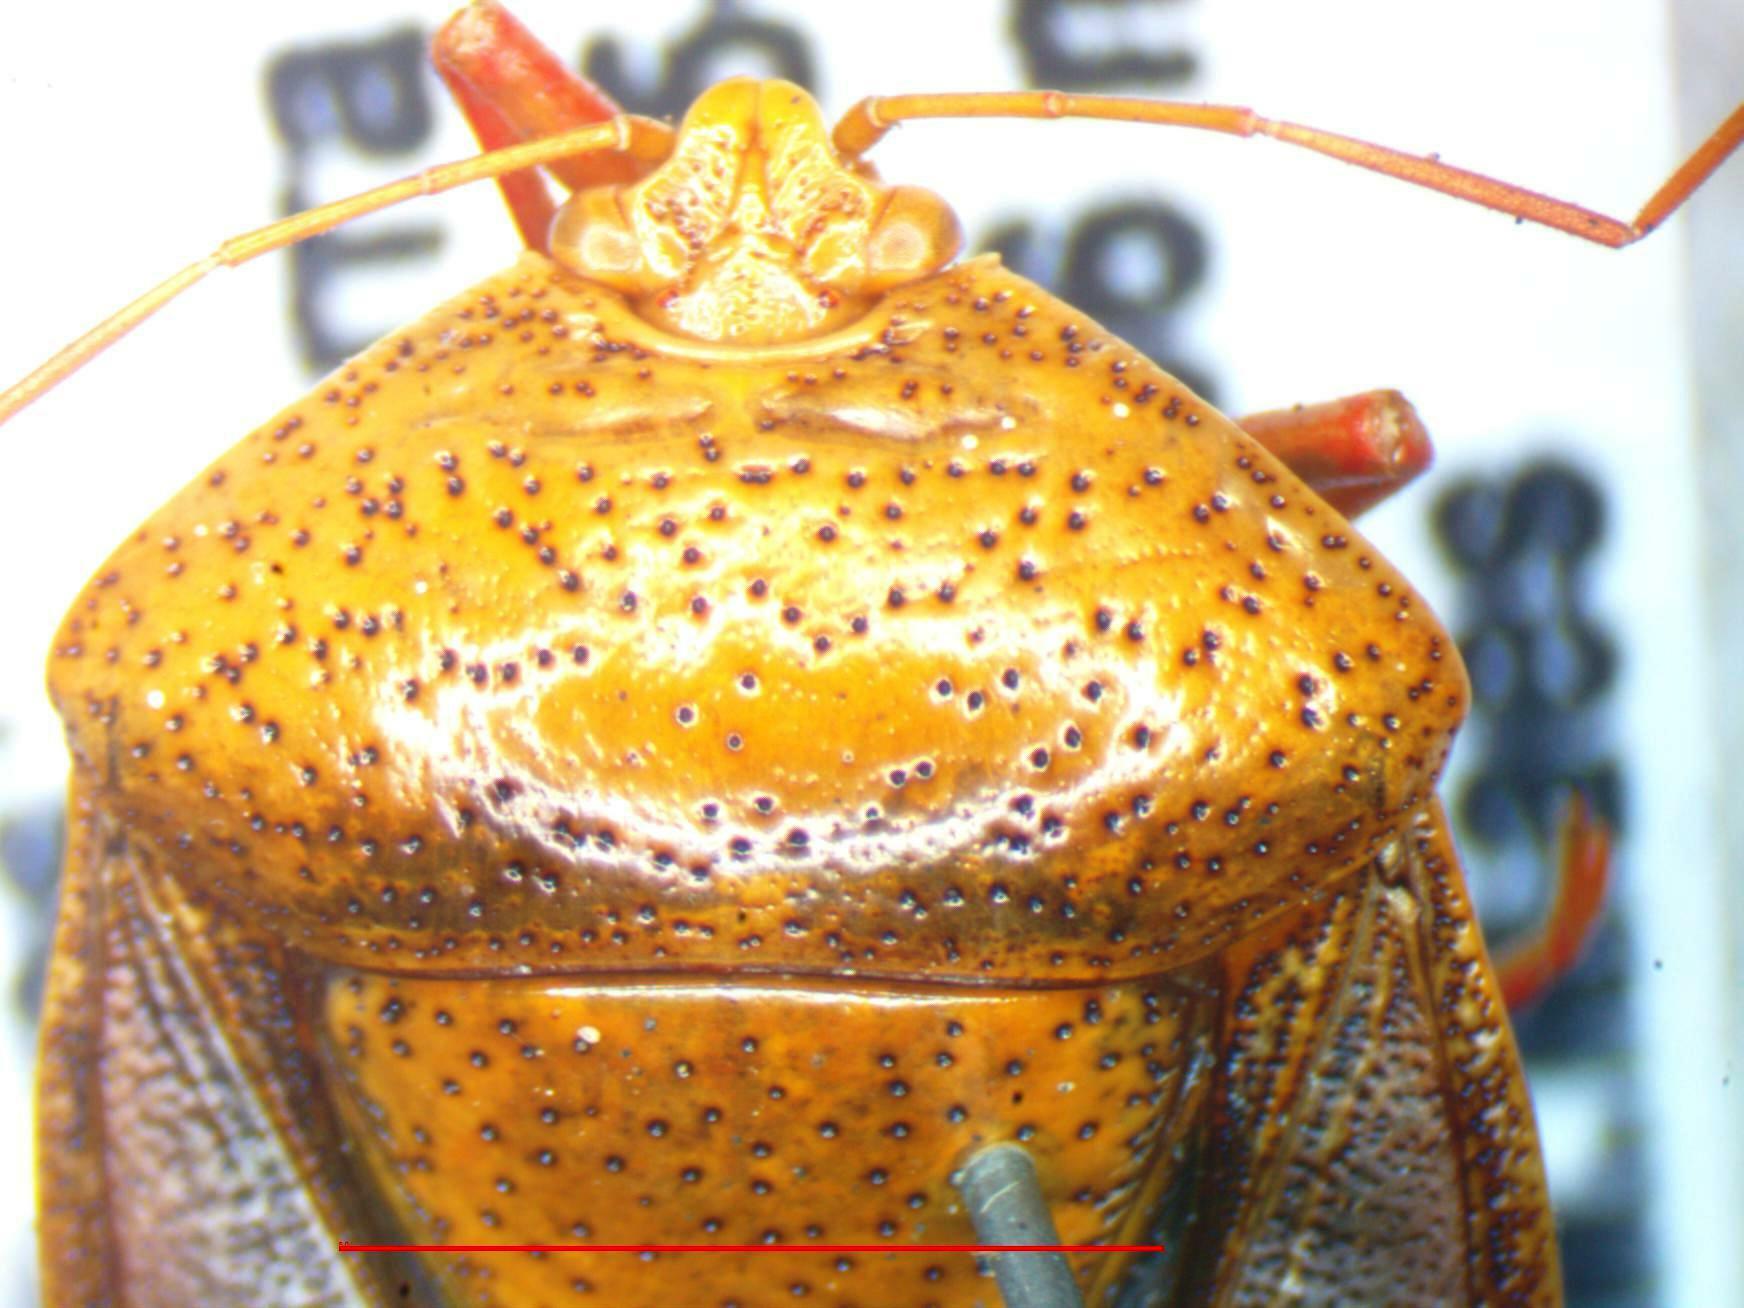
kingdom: Animalia
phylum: Arthropoda
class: Insecta
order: Hemiptera
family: Pentatomidae
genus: Edessa
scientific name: Edessa bifida
